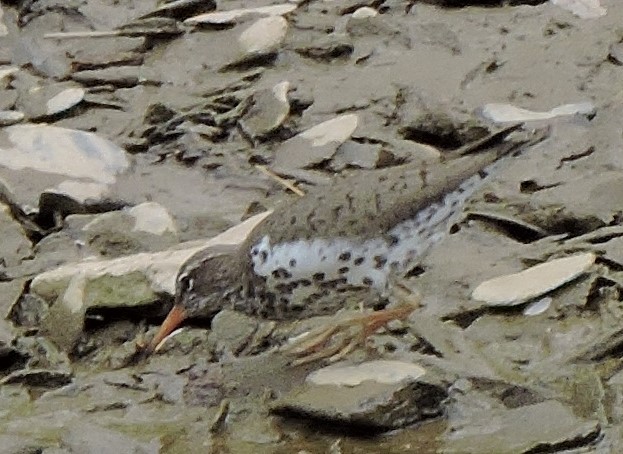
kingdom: Animalia
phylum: Chordata
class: Aves
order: Charadriiformes
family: Scolopacidae
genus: Actitis
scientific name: Actitis macularius
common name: Spotted sandpiper
